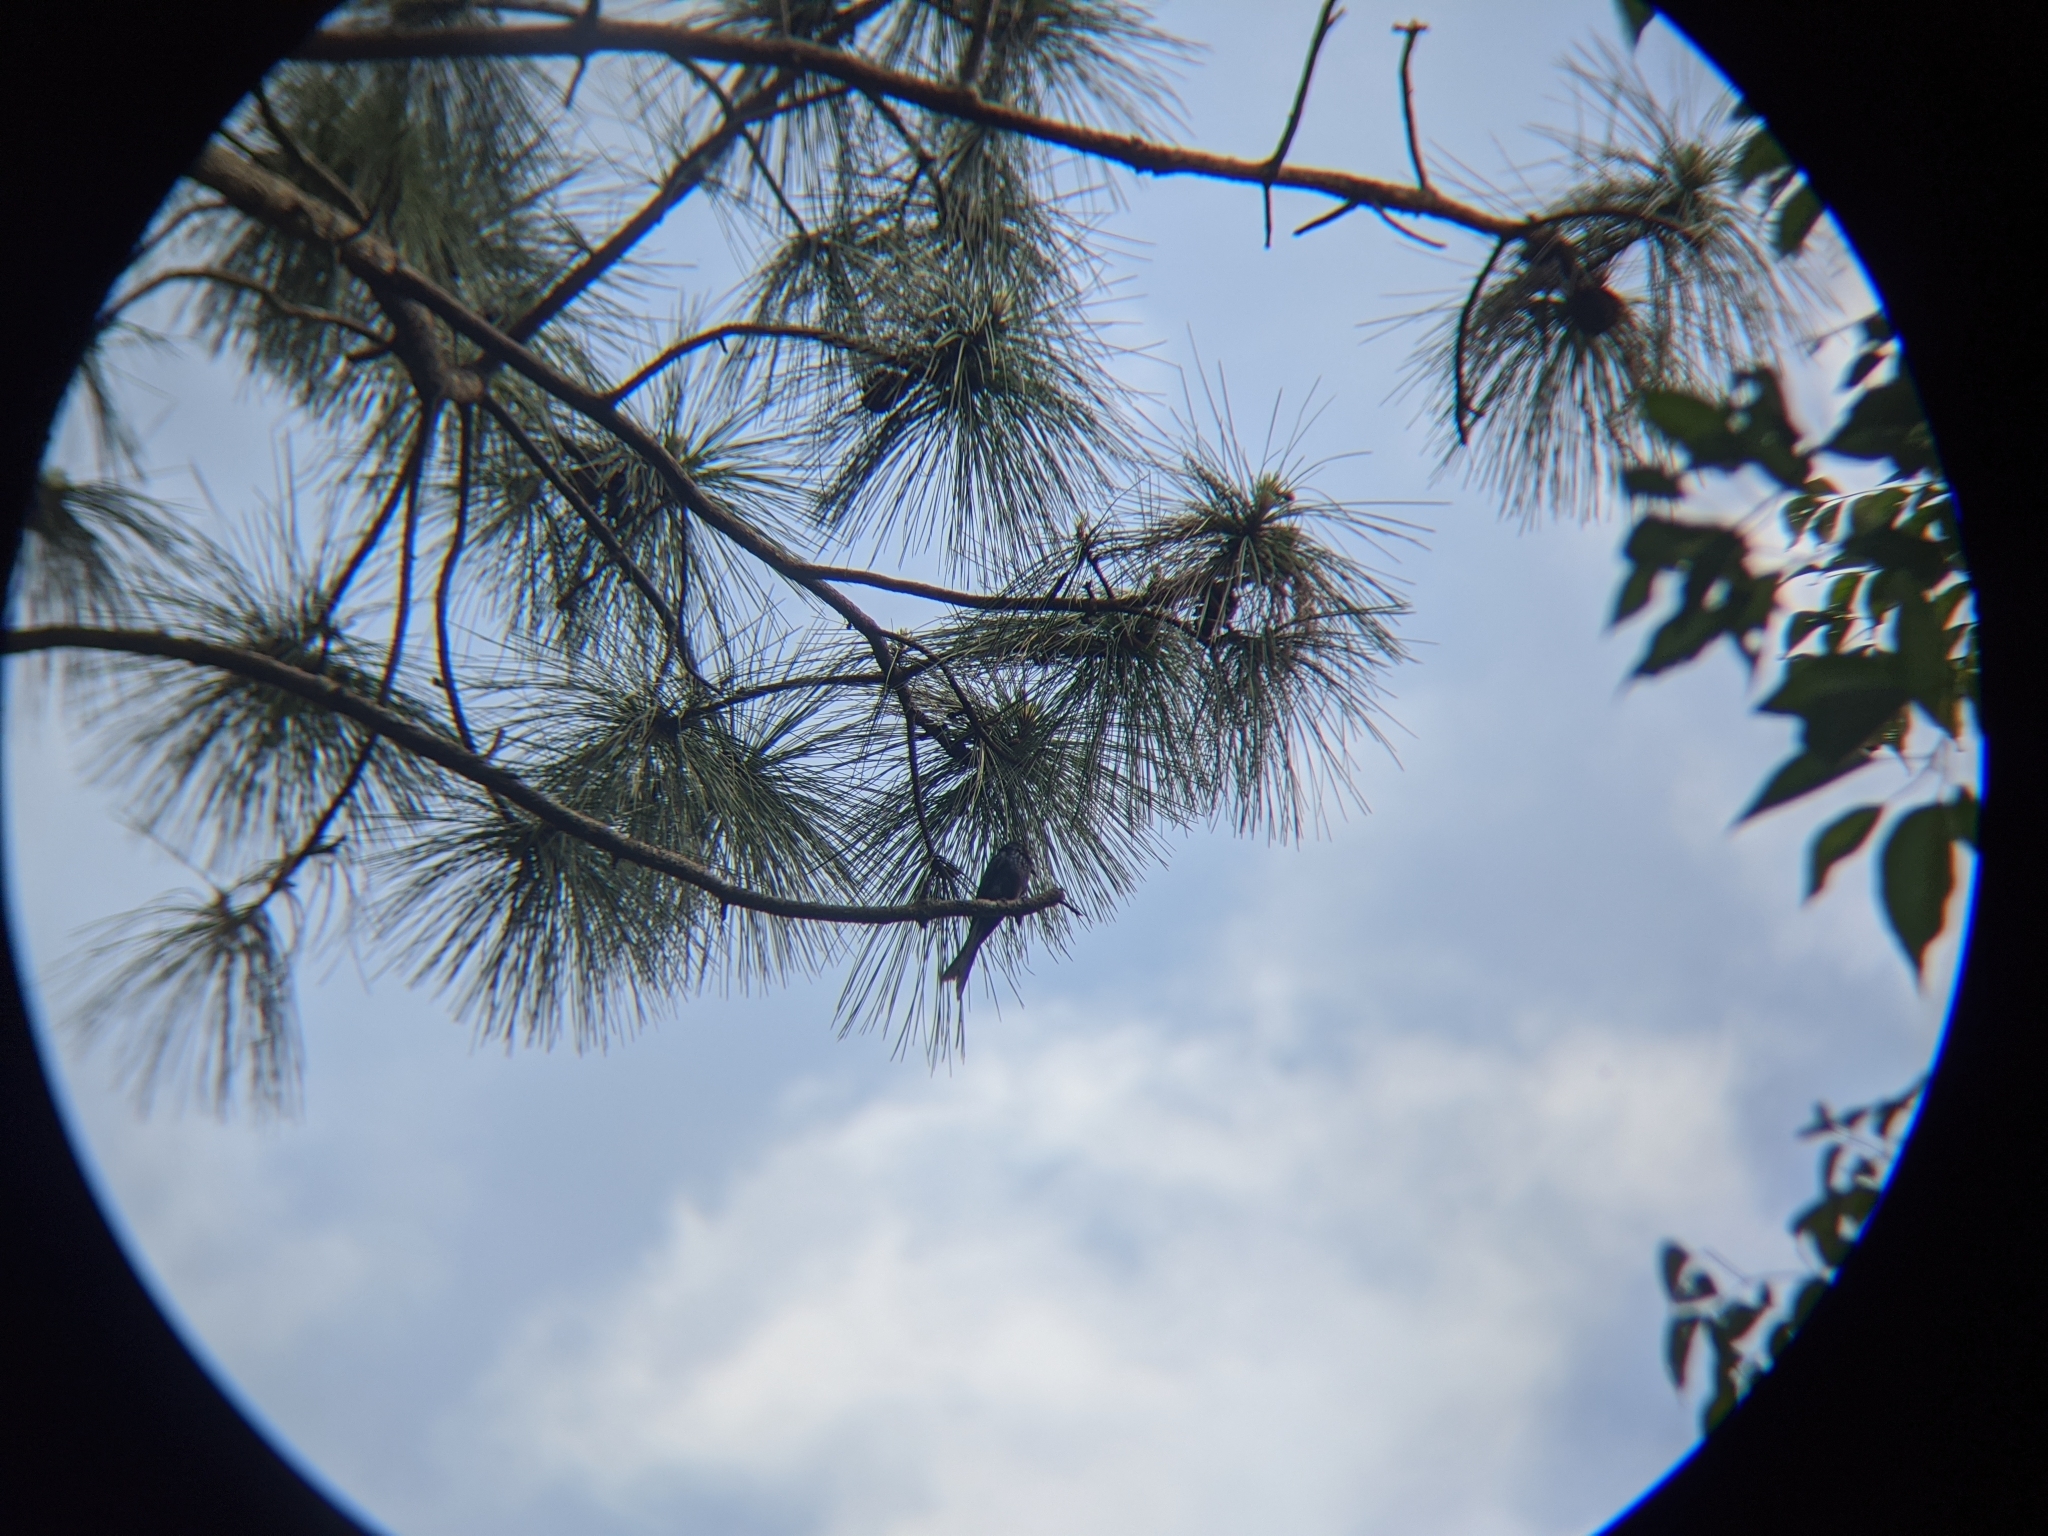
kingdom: Animalia
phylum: Chordata
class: Aves
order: Passeriformes
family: Dicruridae
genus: Dicrurus
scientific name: Dicrurus aeneus
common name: Bronzed drongo
